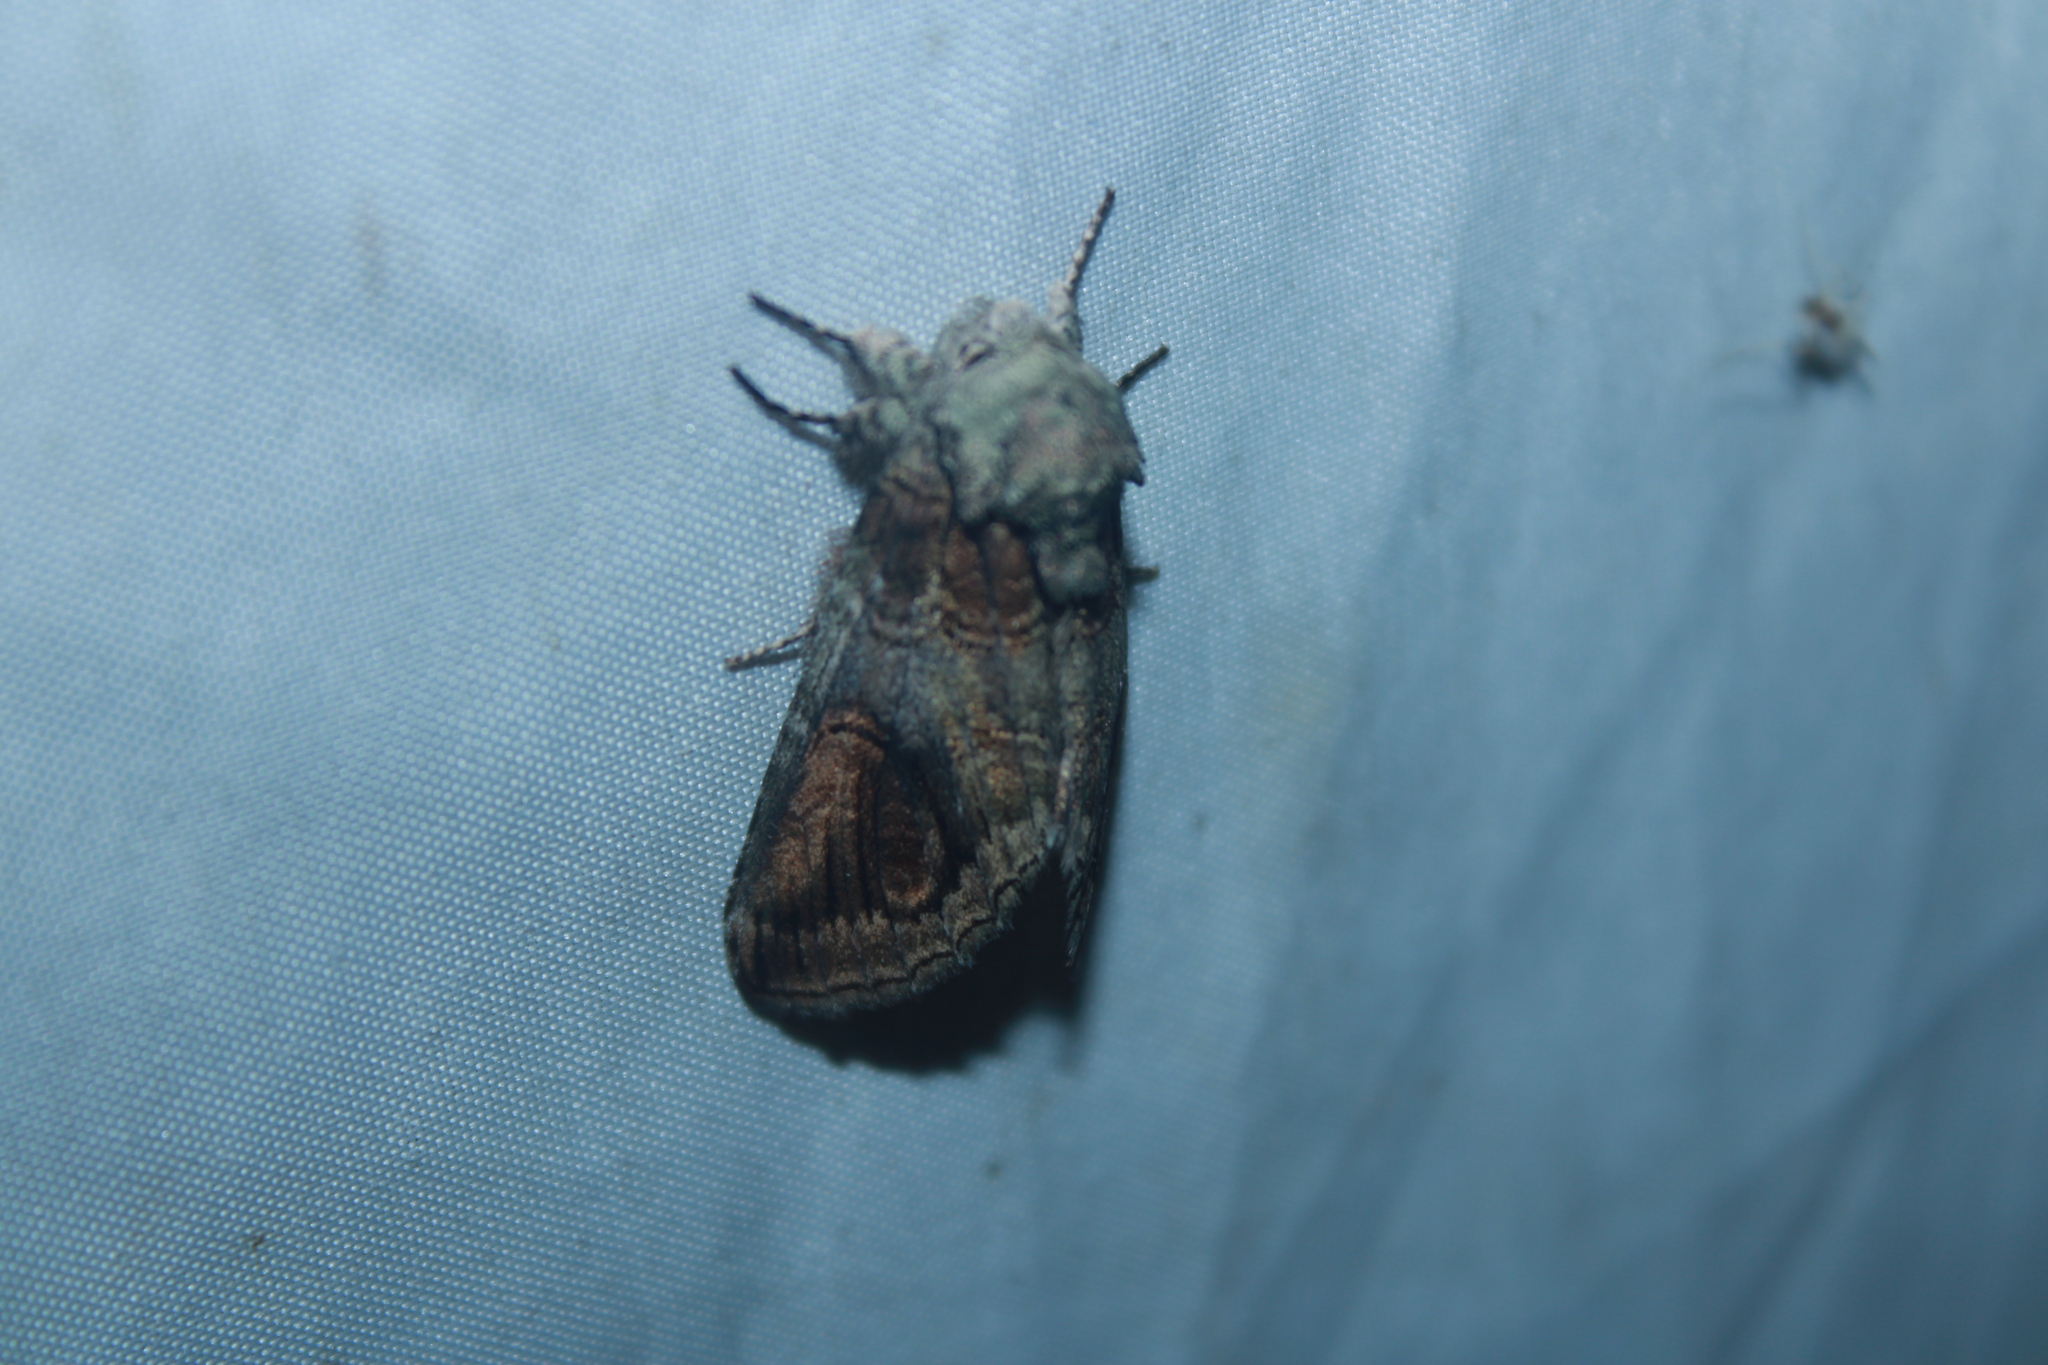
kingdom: Animalia
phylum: Arthropoda
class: Insecta
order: Lepidoptera
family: Notodontidae
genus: Heterocampa
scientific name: Heterocampa obliqua
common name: Oblique heterocampa
